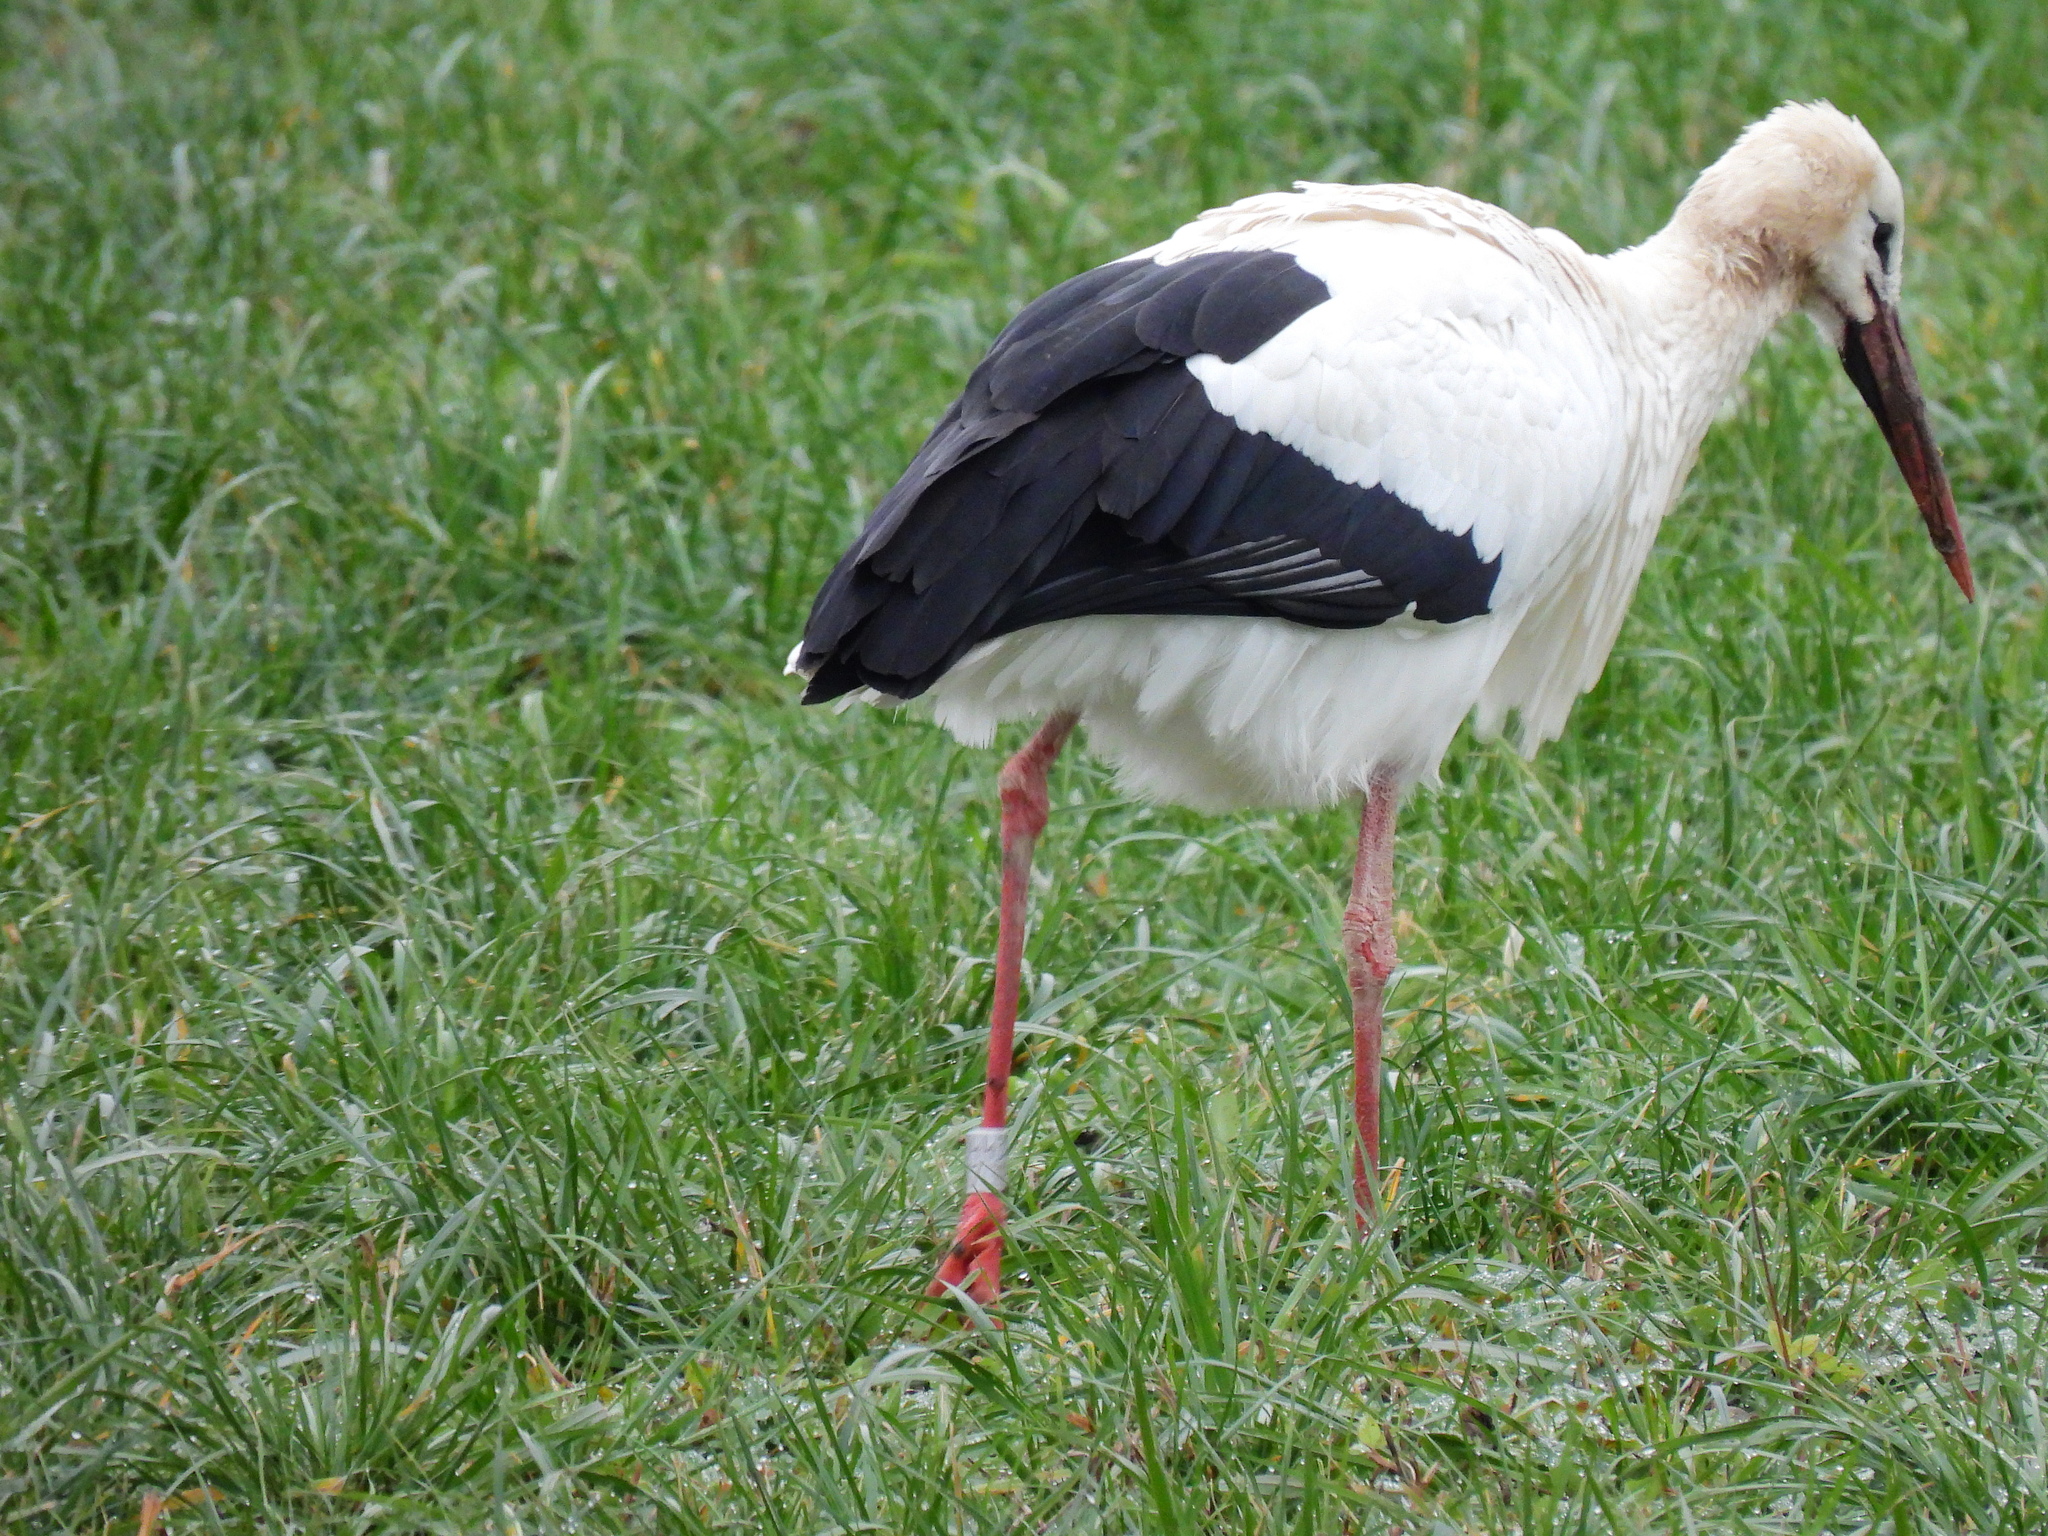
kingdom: Animalia
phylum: Chordata
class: Aves
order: Ciconiiformes
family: Ciconiidae
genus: Ciconia
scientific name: Ciconia ciconia
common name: White stork
